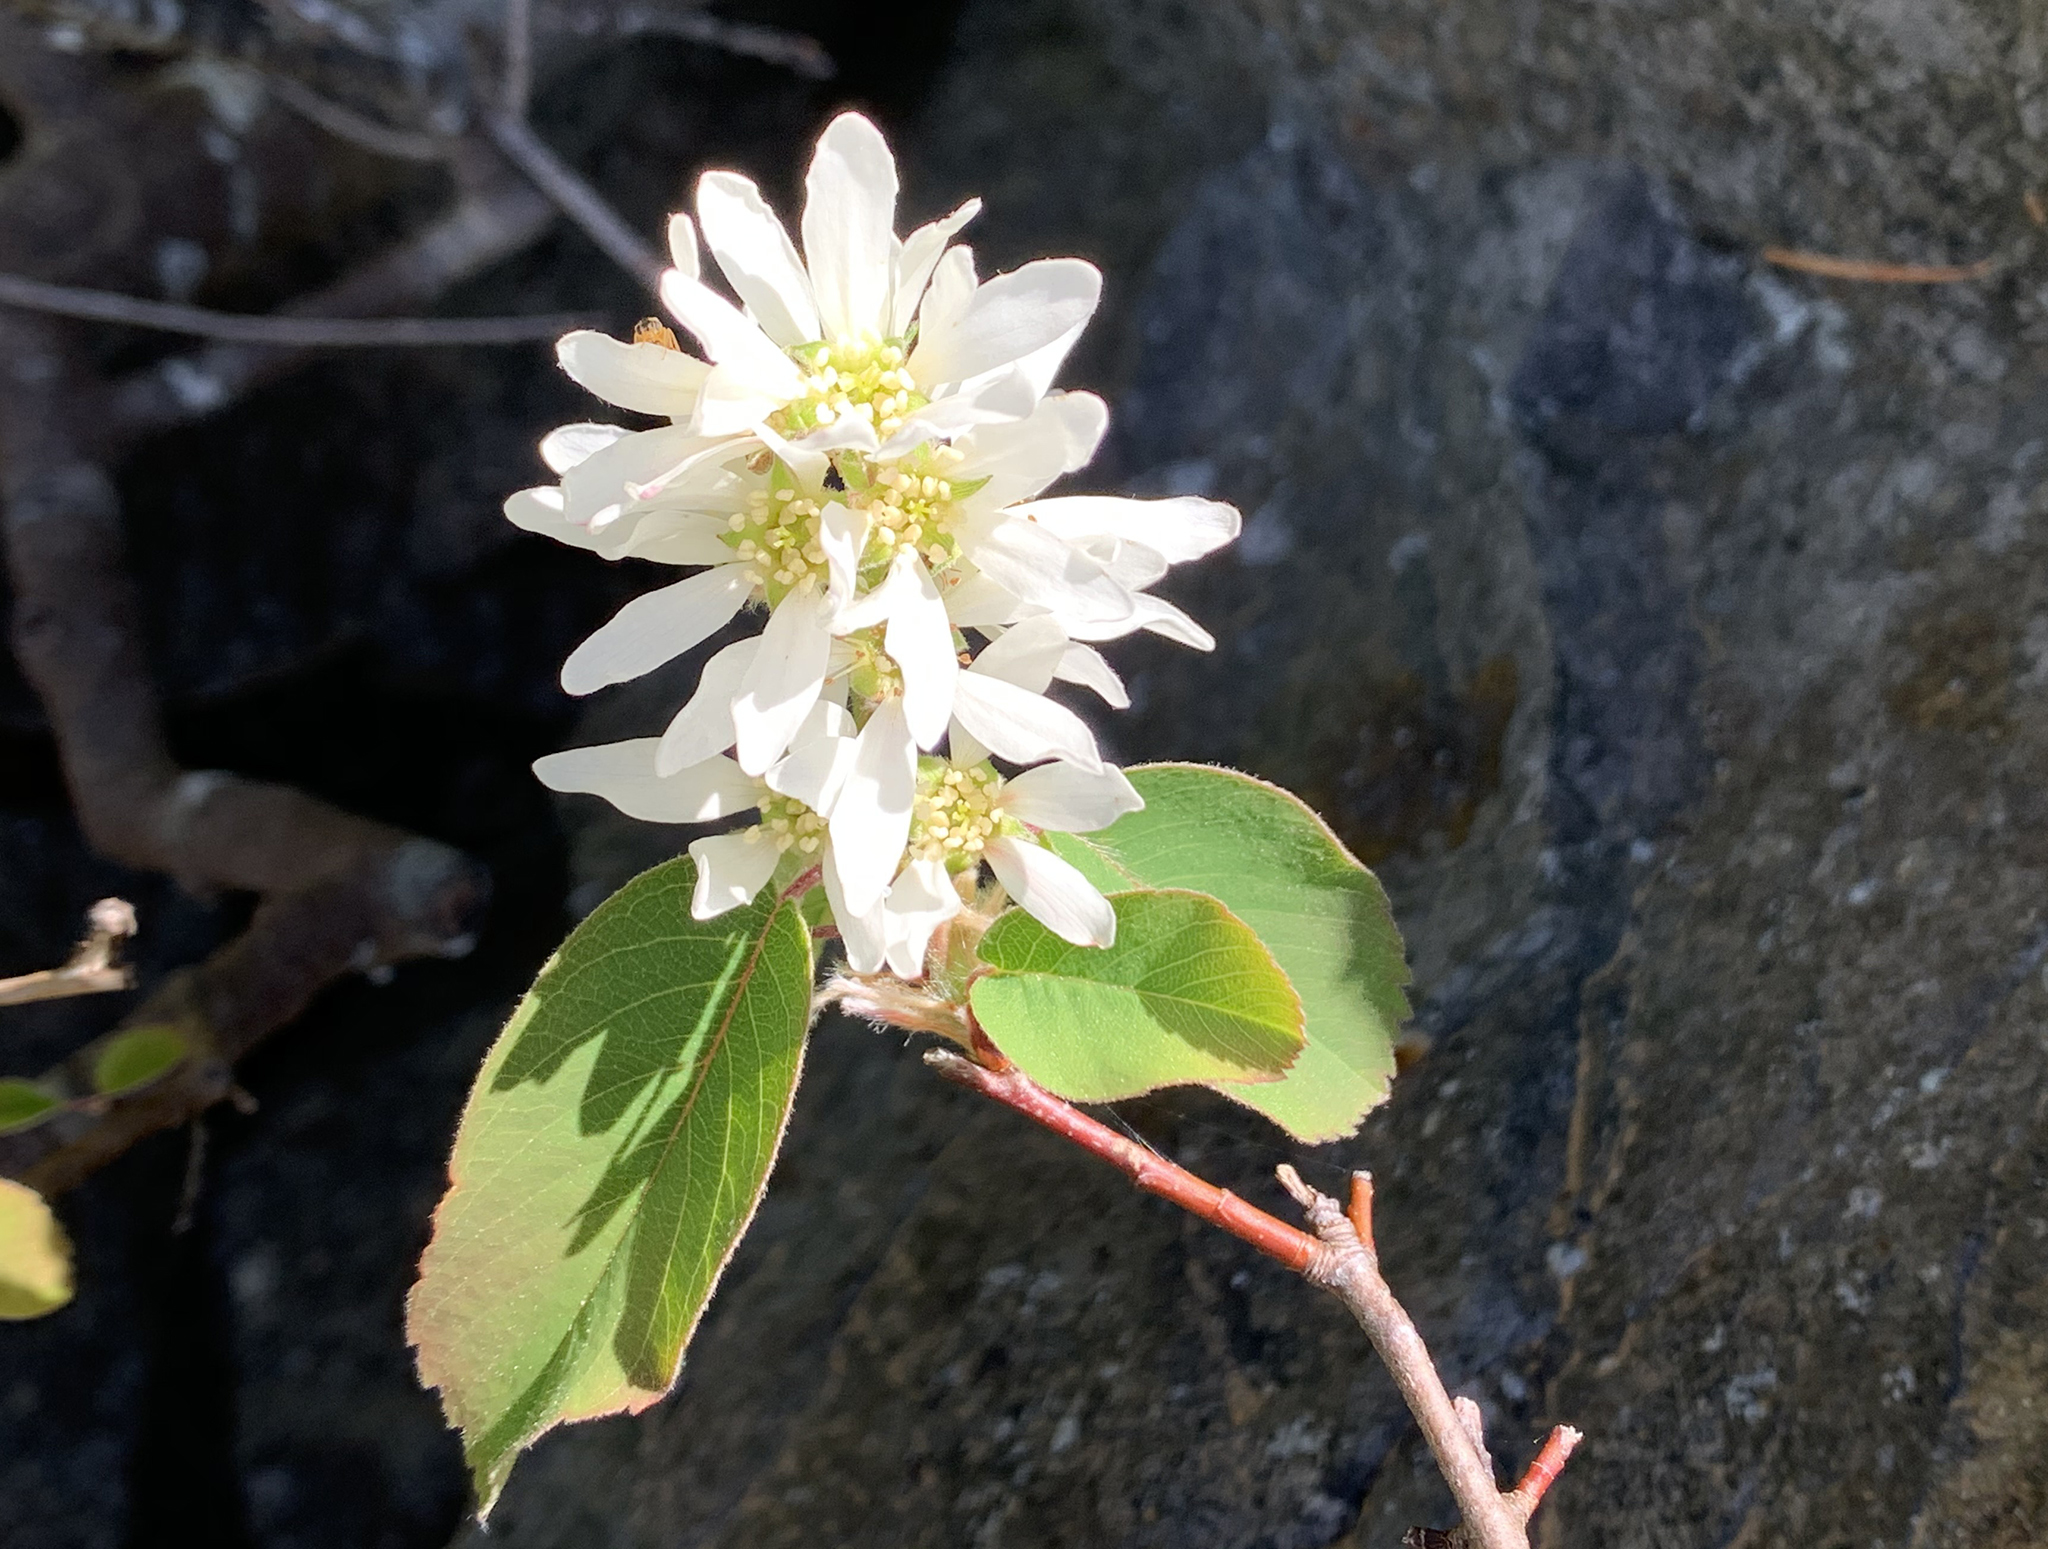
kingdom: Plantae
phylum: Tracheophyta
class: Magnoliopsida
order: Rosales
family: Rosaceae
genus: Amelanchier
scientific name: Amelanchier alnifolia
